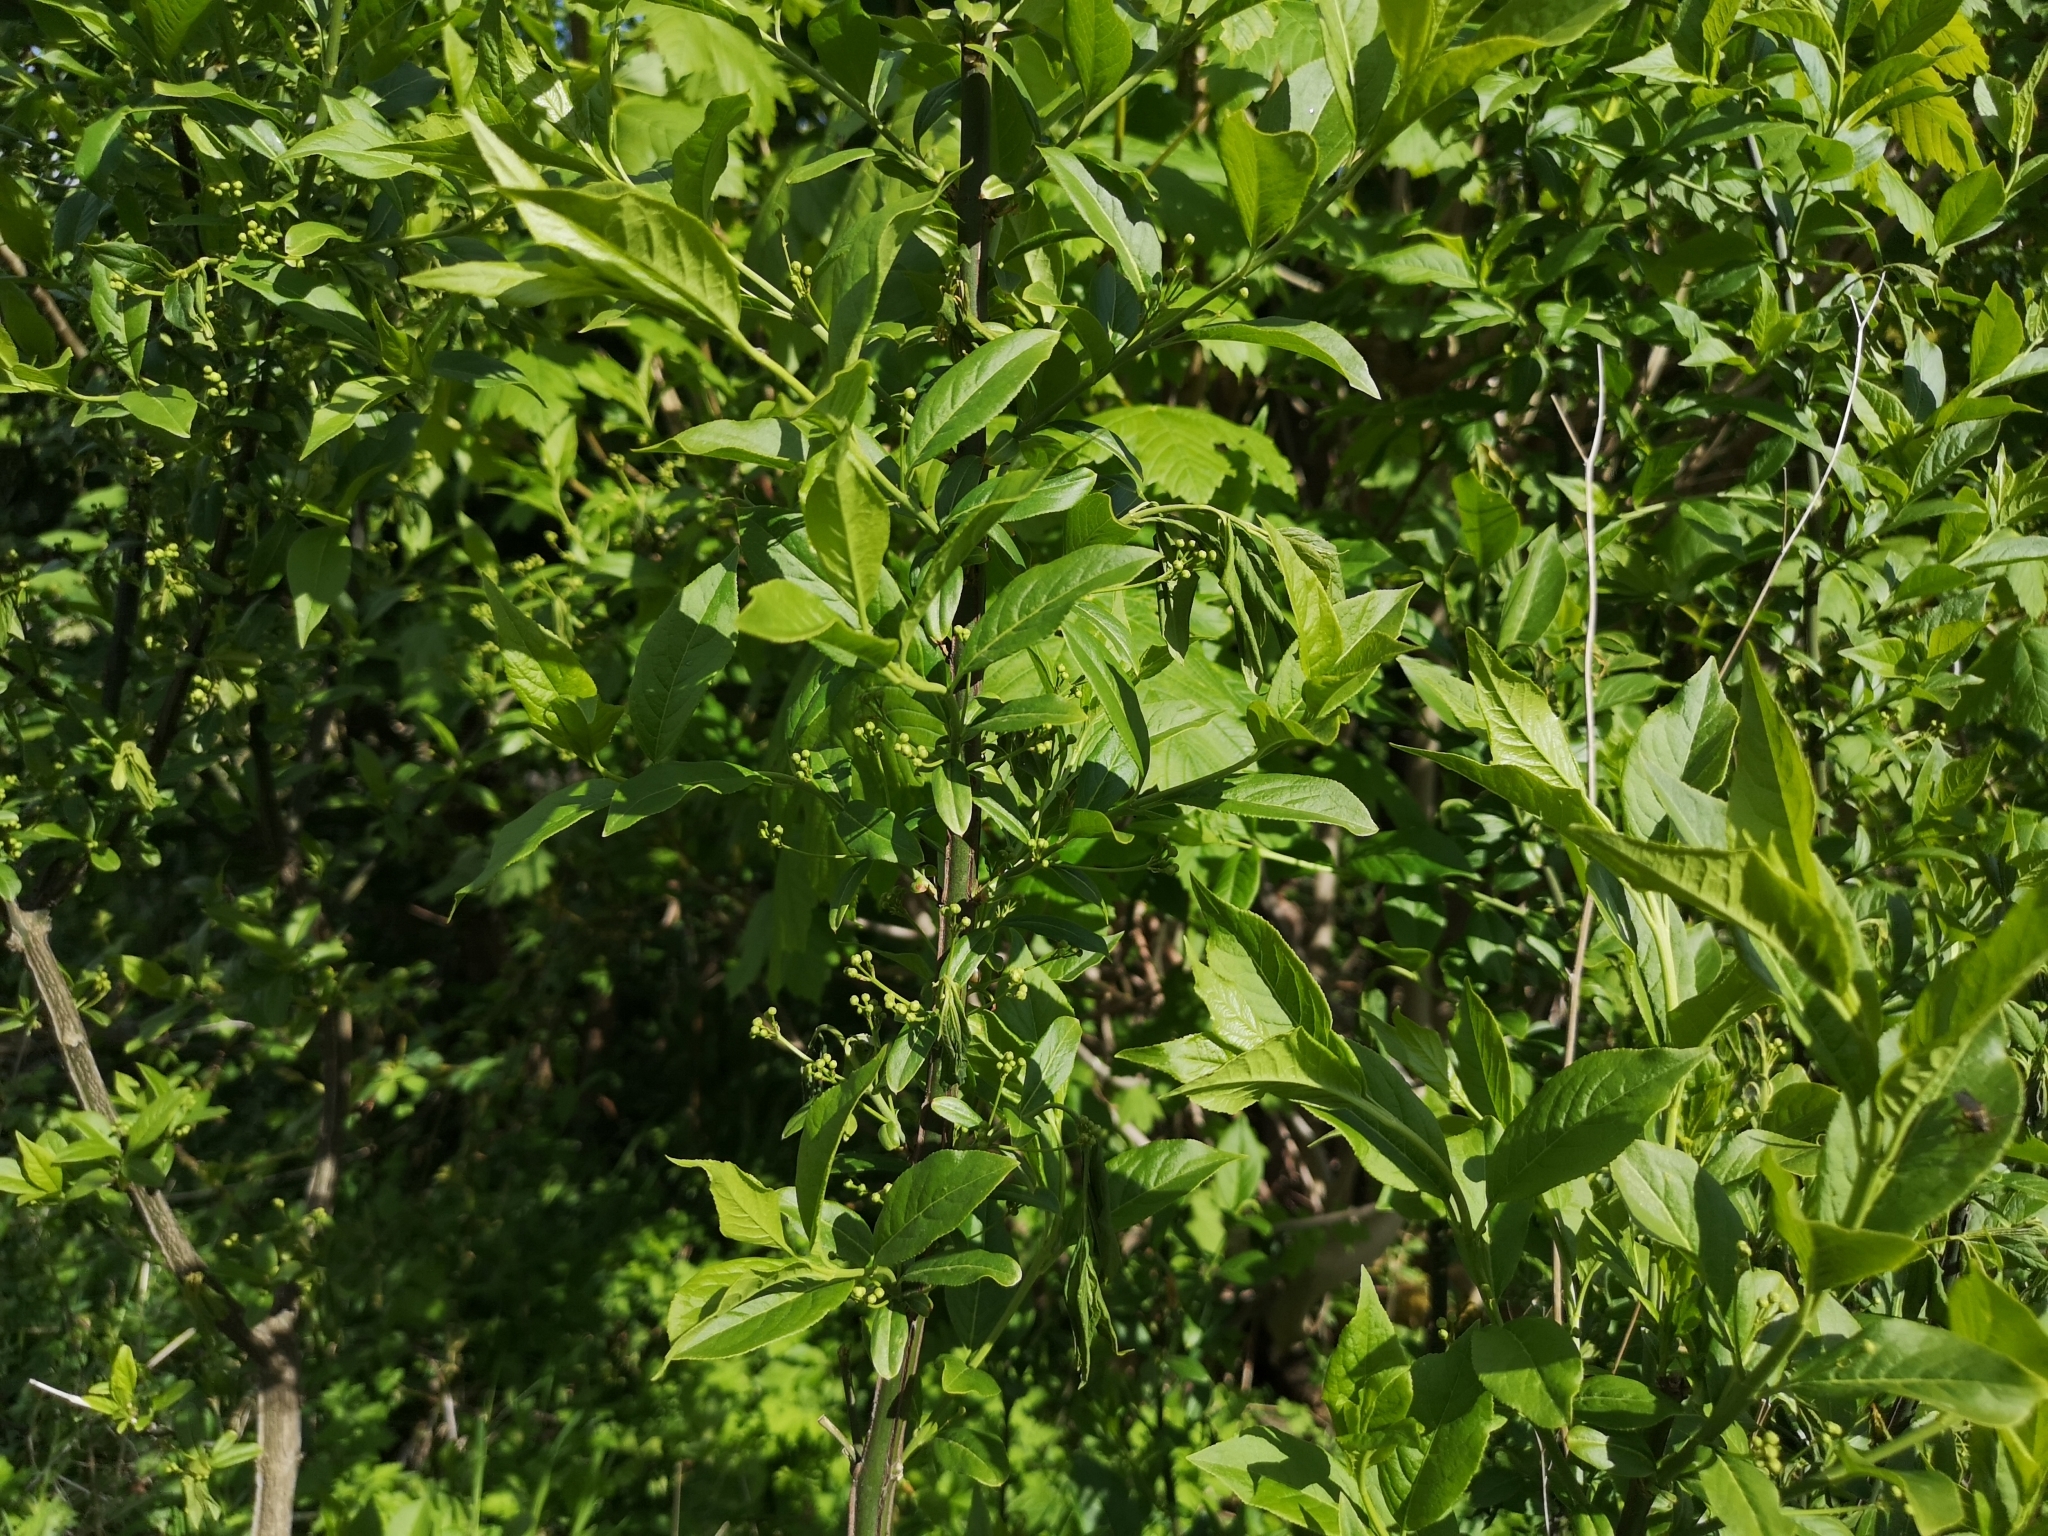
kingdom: Plantae
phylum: Tracheophyta
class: Magnoliopsida
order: Celastrales
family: Celastraceae
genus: Euonymus
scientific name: Euonymus europaeus
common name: Spindle
